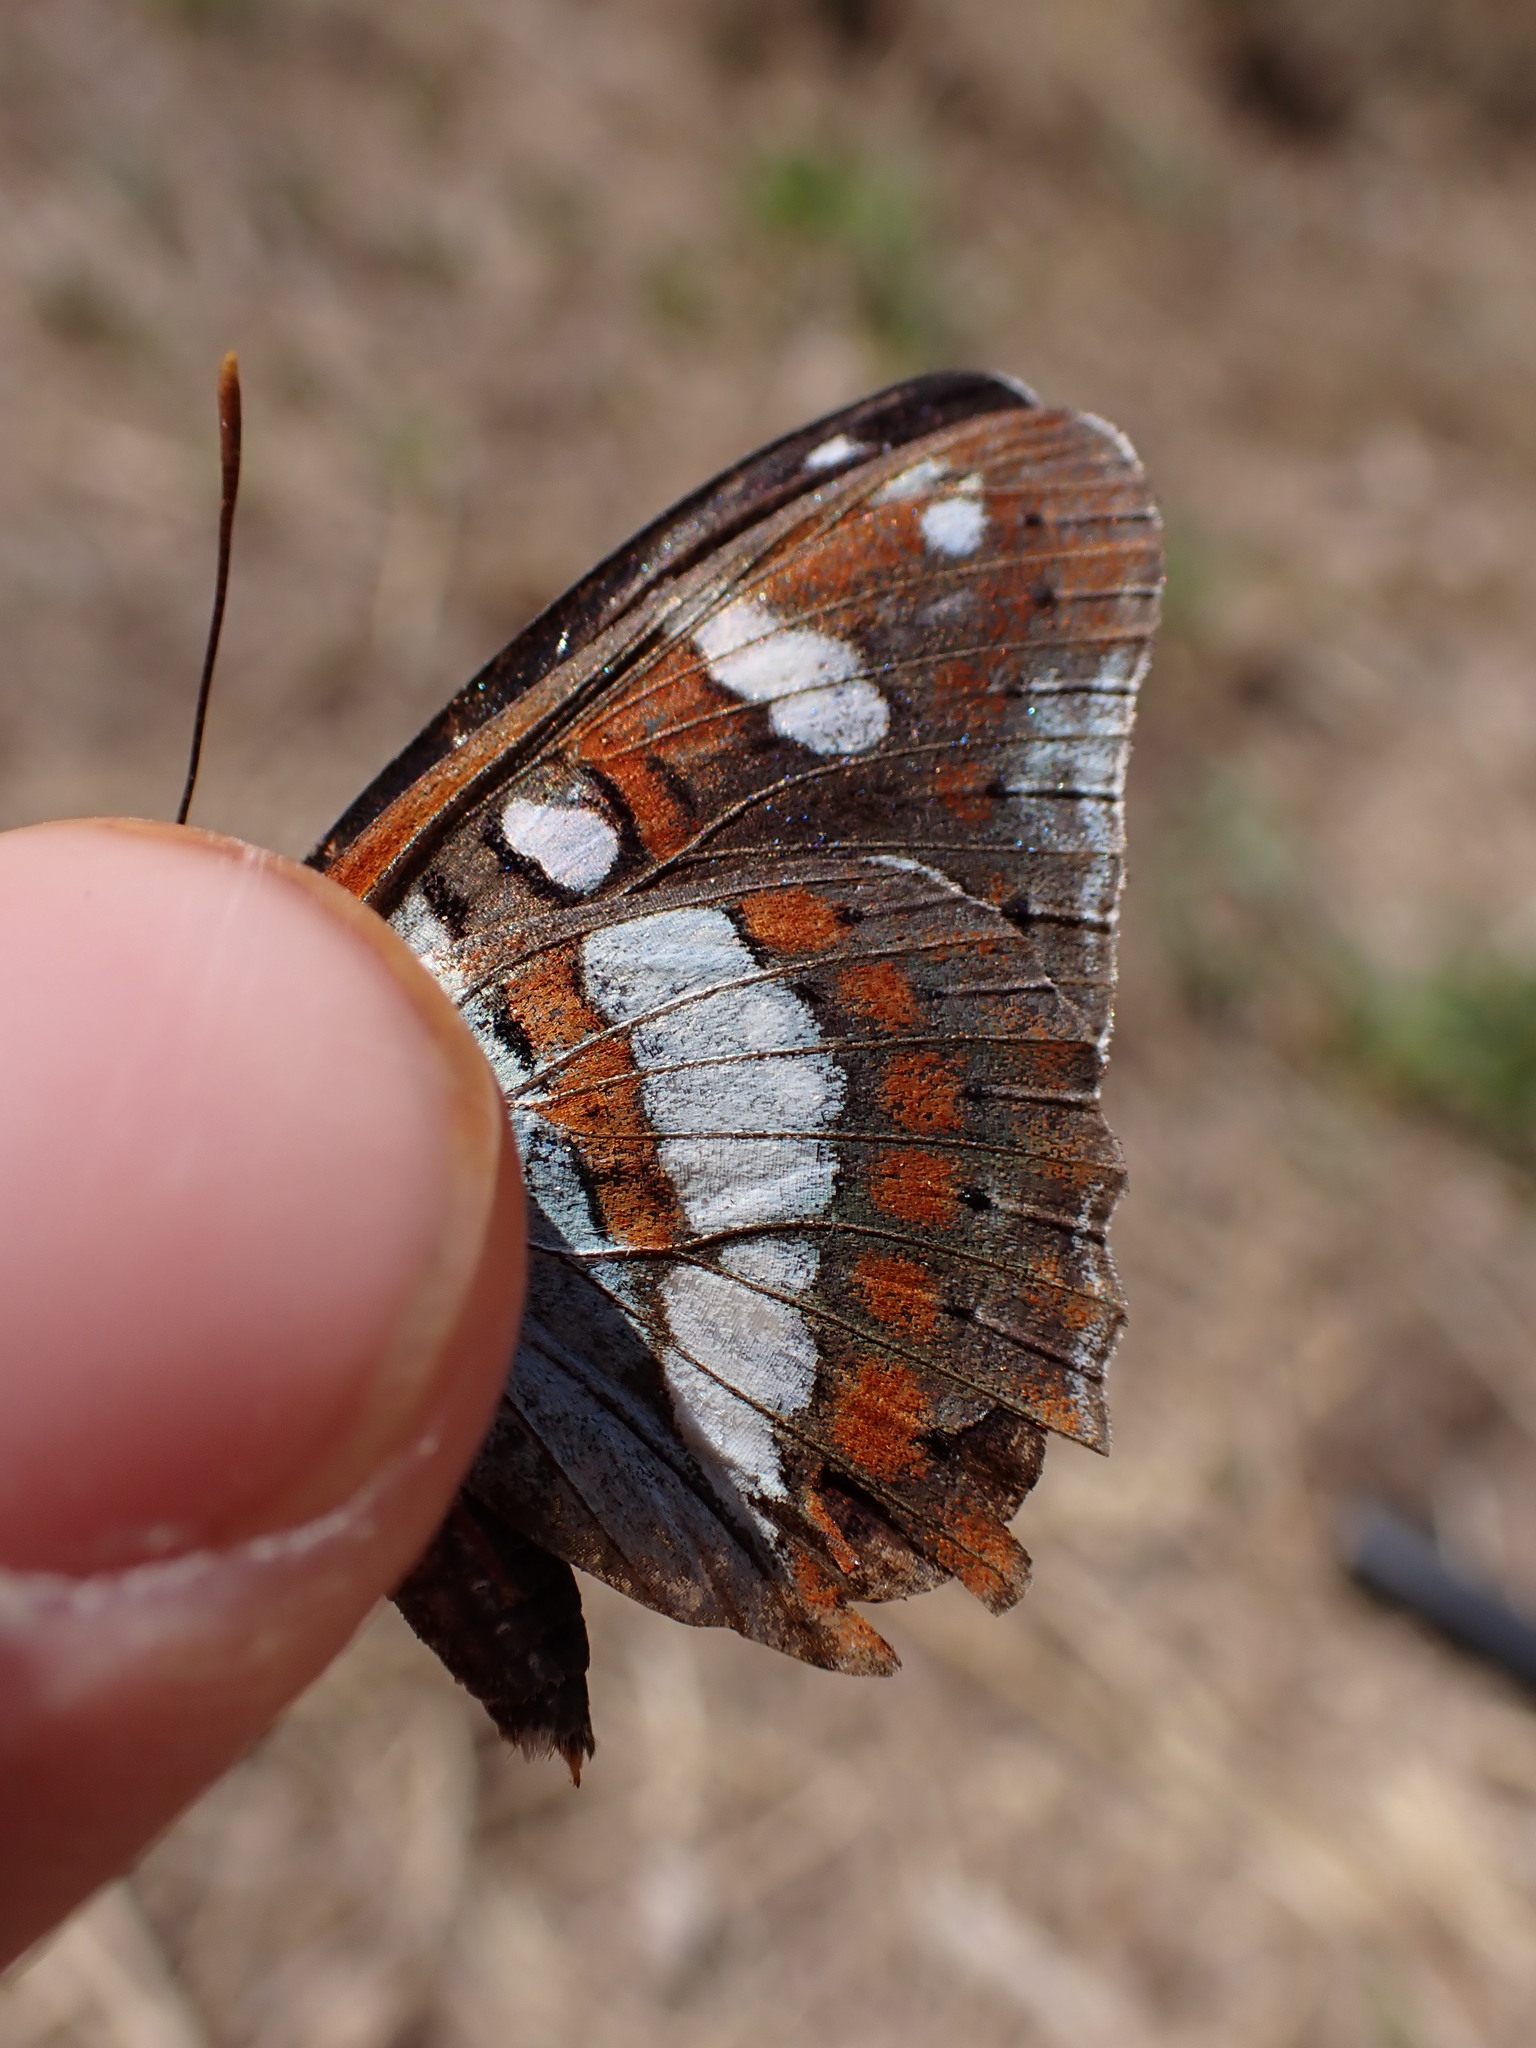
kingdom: Animalia
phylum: Arthropoda
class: Insecta
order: Lepidoptera
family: Nymphalidae
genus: Limenitis
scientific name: Limenitis reducta
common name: Southern white admiral
